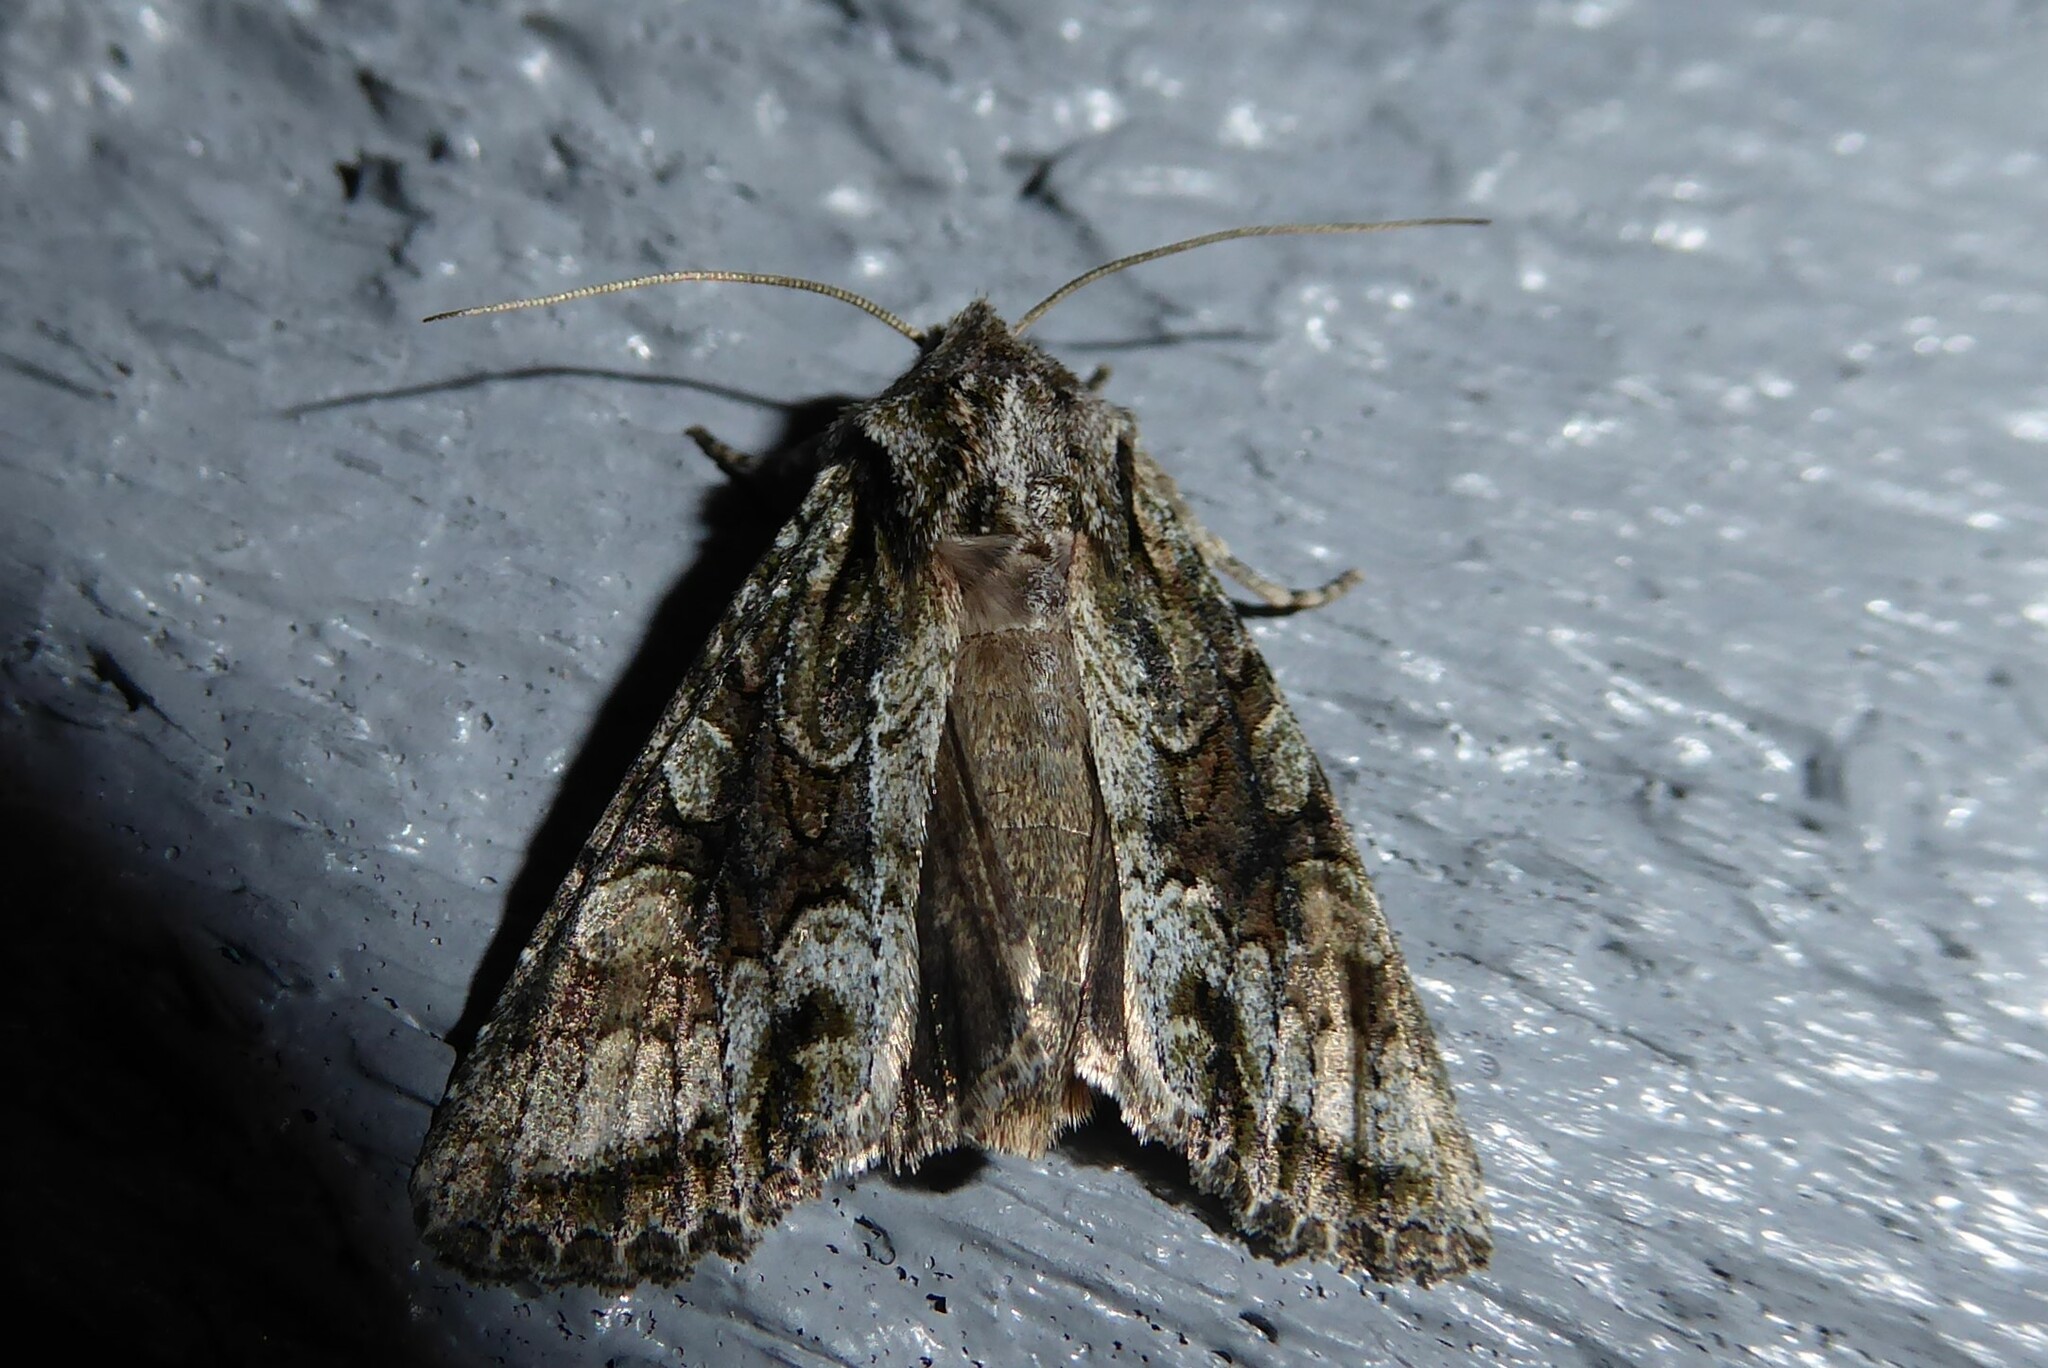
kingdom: Animalia
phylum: Arthropoda
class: Insecta
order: Lepidoptera
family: Noctuidae
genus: Ichneutica
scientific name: Ichneutica mutans
